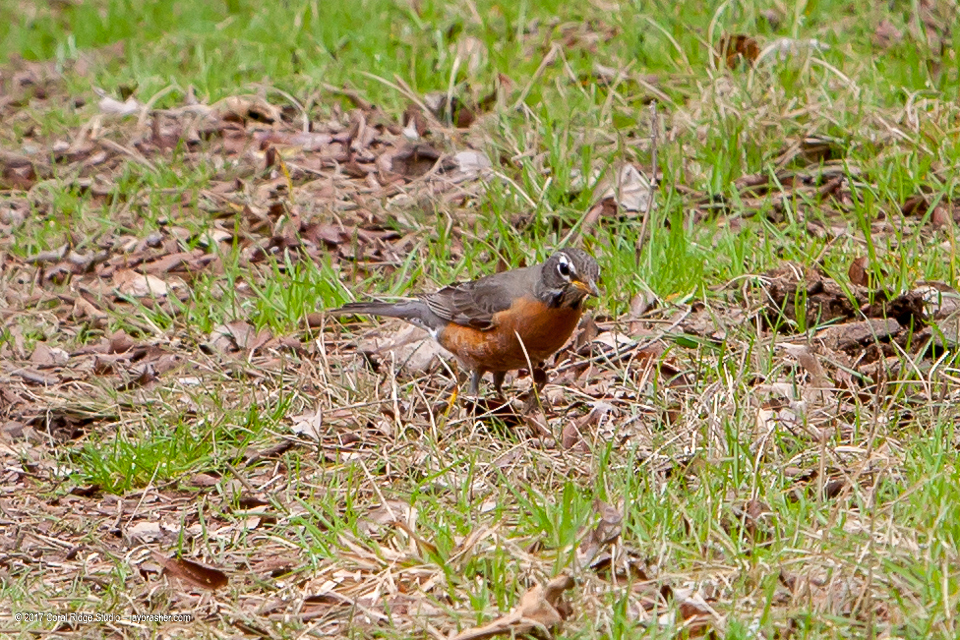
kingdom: Animalia
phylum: Chordata
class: Aves
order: Passeriformes
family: Turdidae
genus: Turdus
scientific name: Turdus migratorius
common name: American robin
